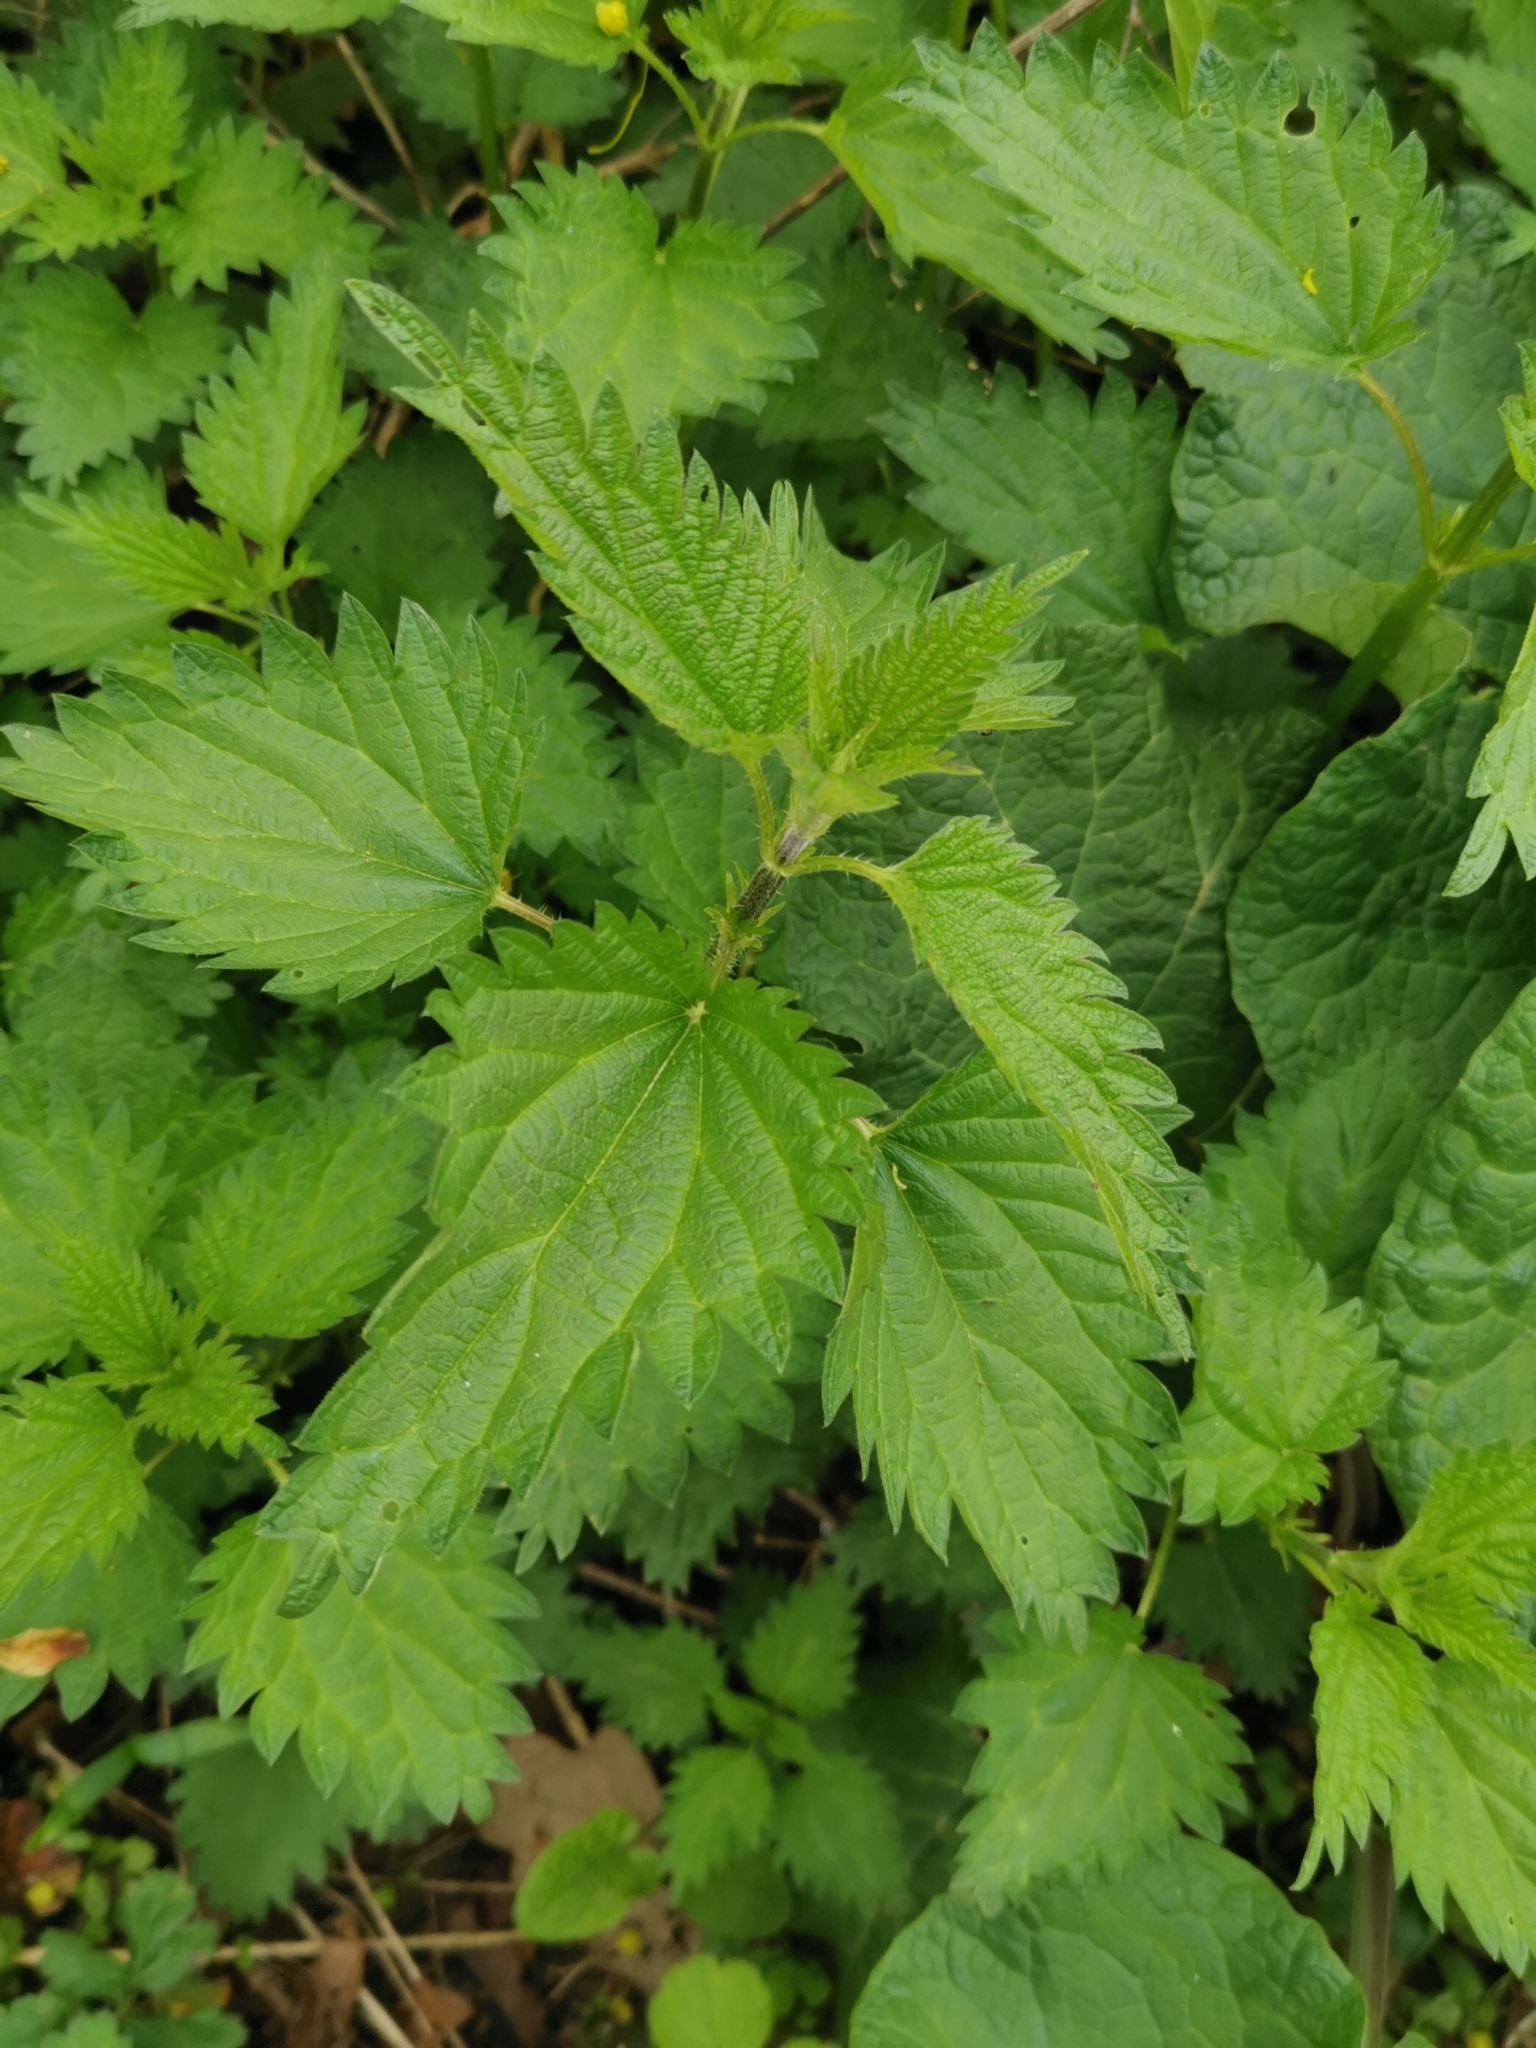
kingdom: Plantae
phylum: Tracheophyta
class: Magnoliopsida
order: Rosales
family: Urticaceae
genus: Urtica
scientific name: Urtica dioica
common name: Common nettle
